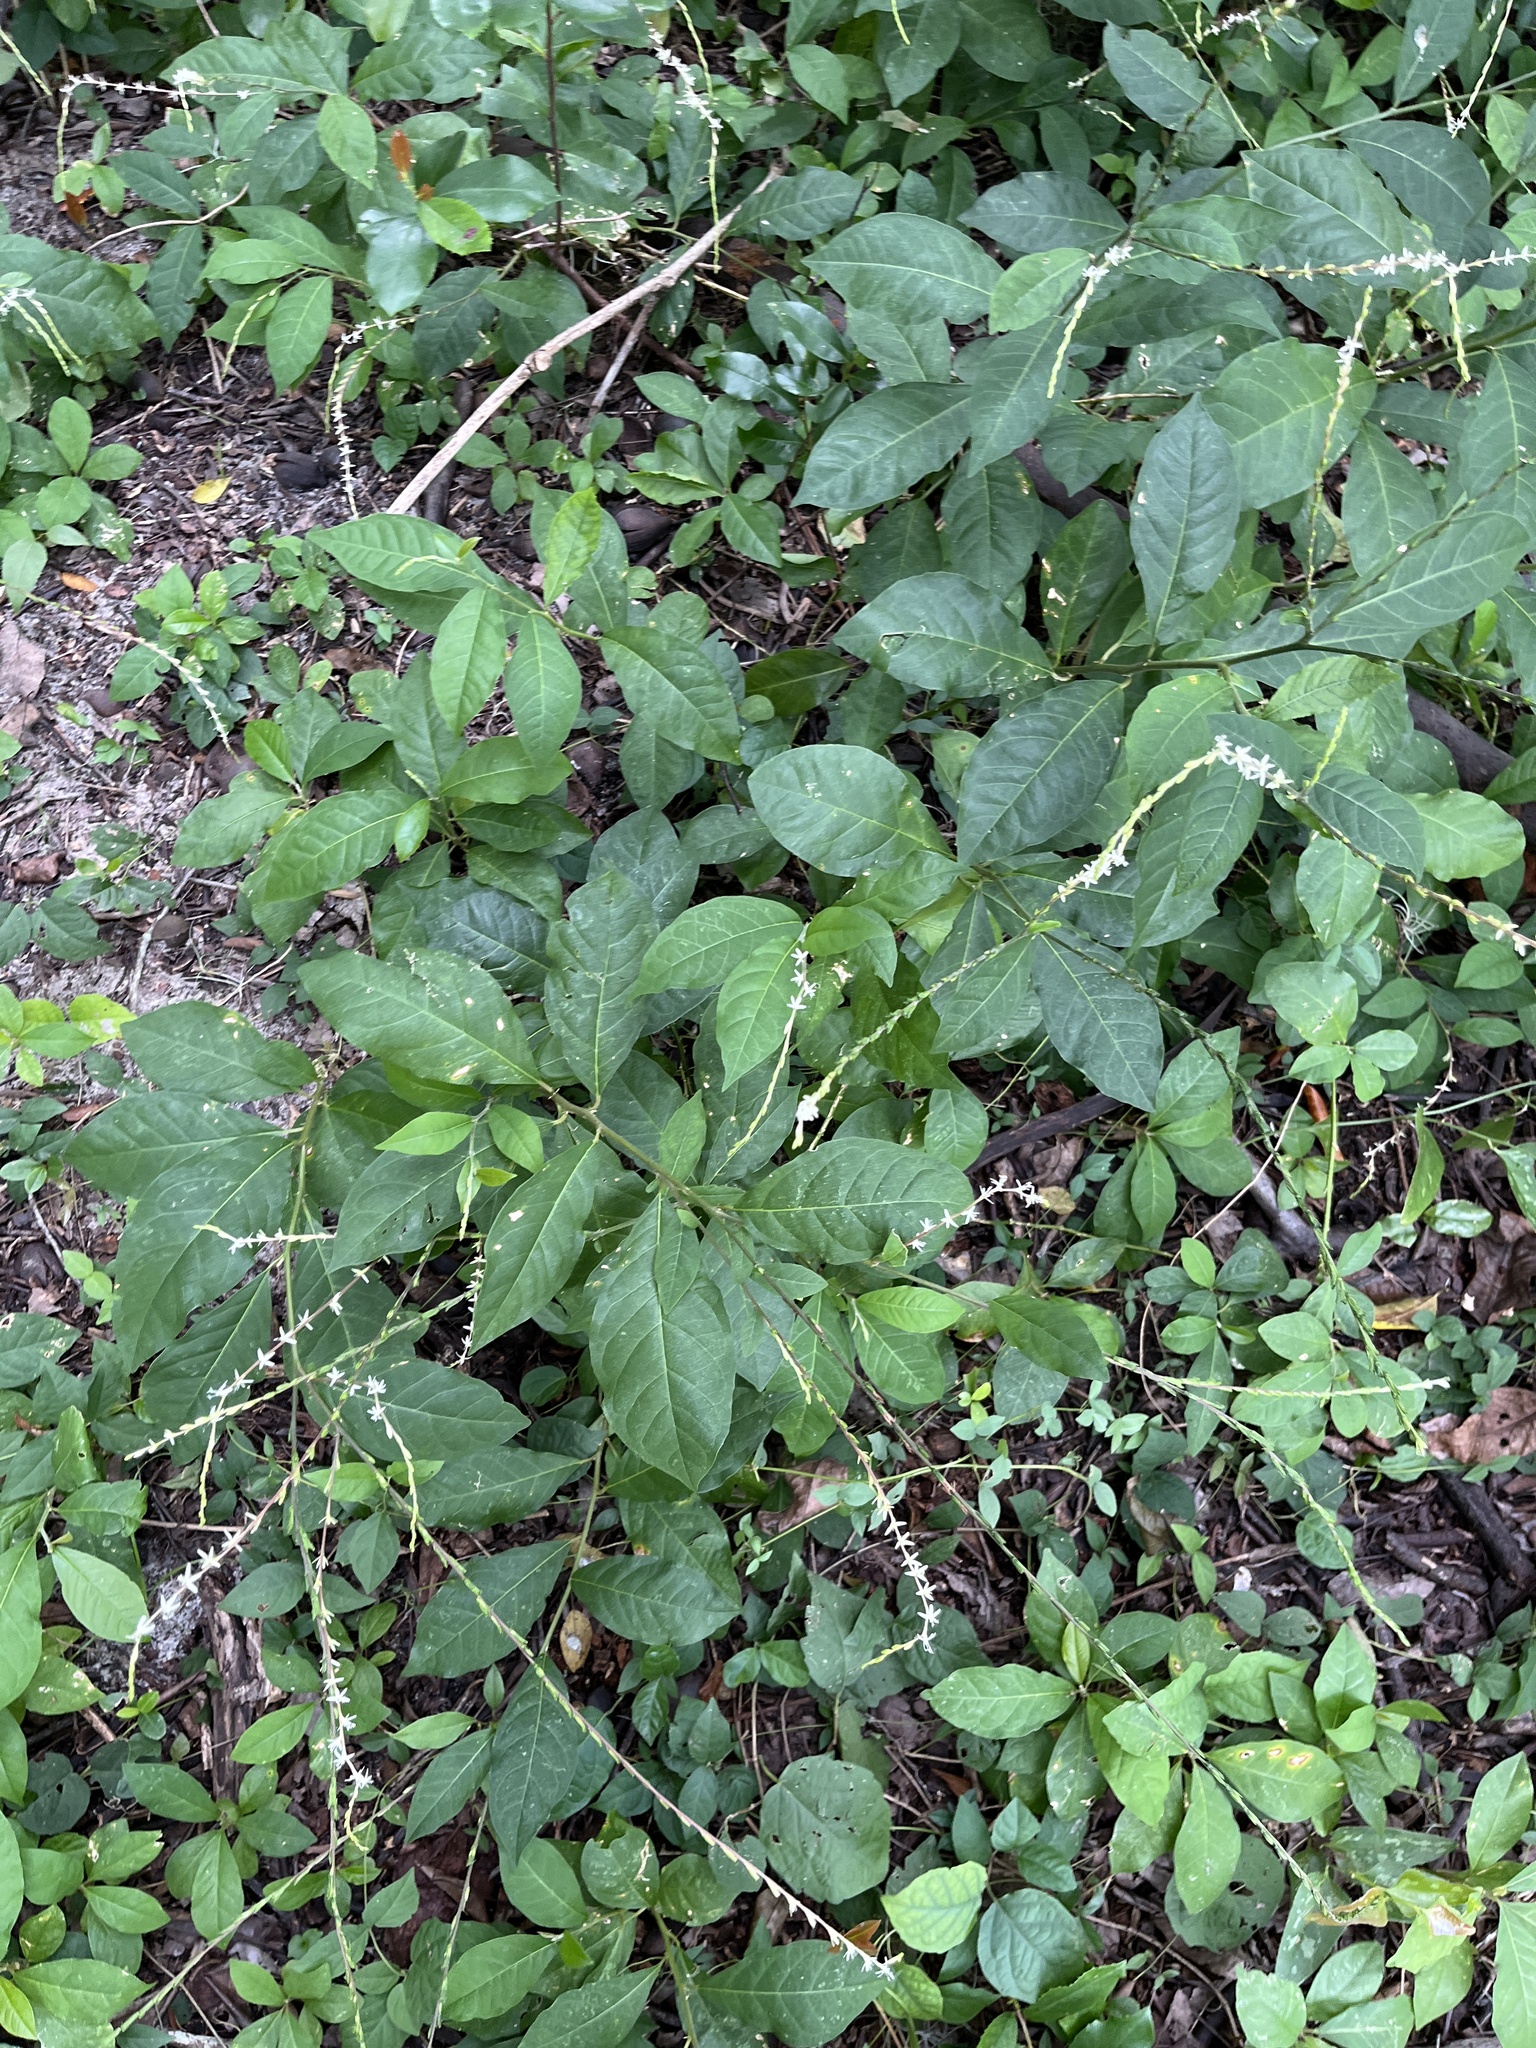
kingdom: Plantae
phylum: Tracheophyta
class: Magnoliopsida
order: Caryophyllales
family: Phytolaccaceae
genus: Petiveria
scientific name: Petiveria alliacea
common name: Garlicweed
